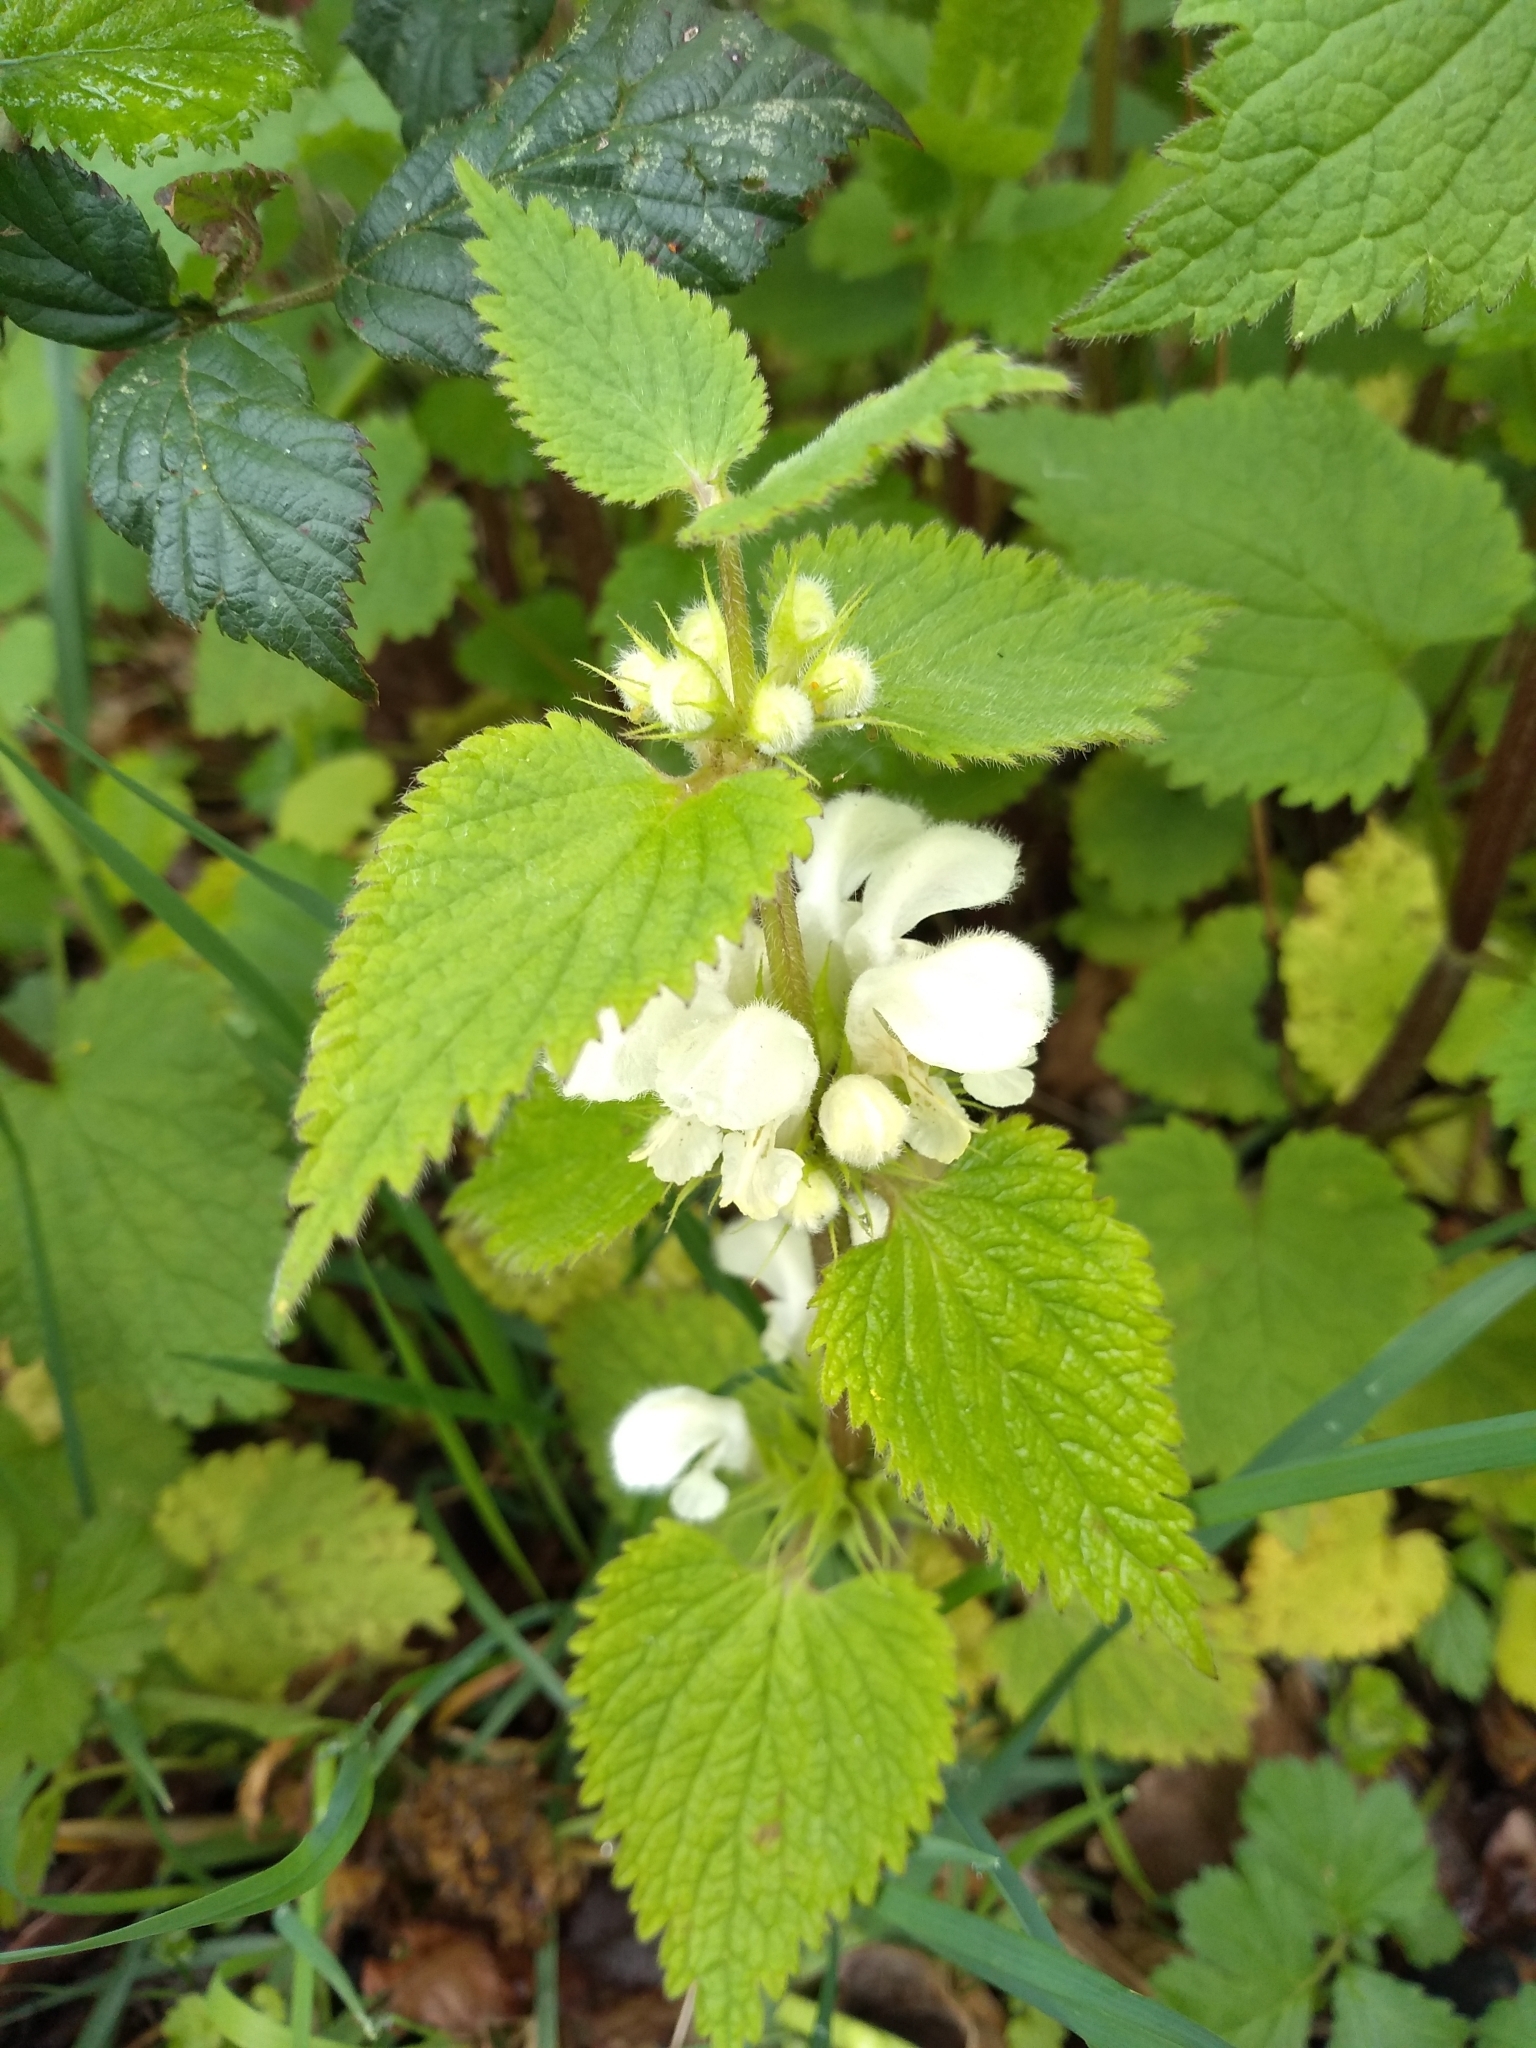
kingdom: Plantae
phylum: Tracheophyta
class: Magnoliopsida
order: Lamiales
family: Lamiaceae
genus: Lamium
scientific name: Lamium album
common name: White dead-nettle
